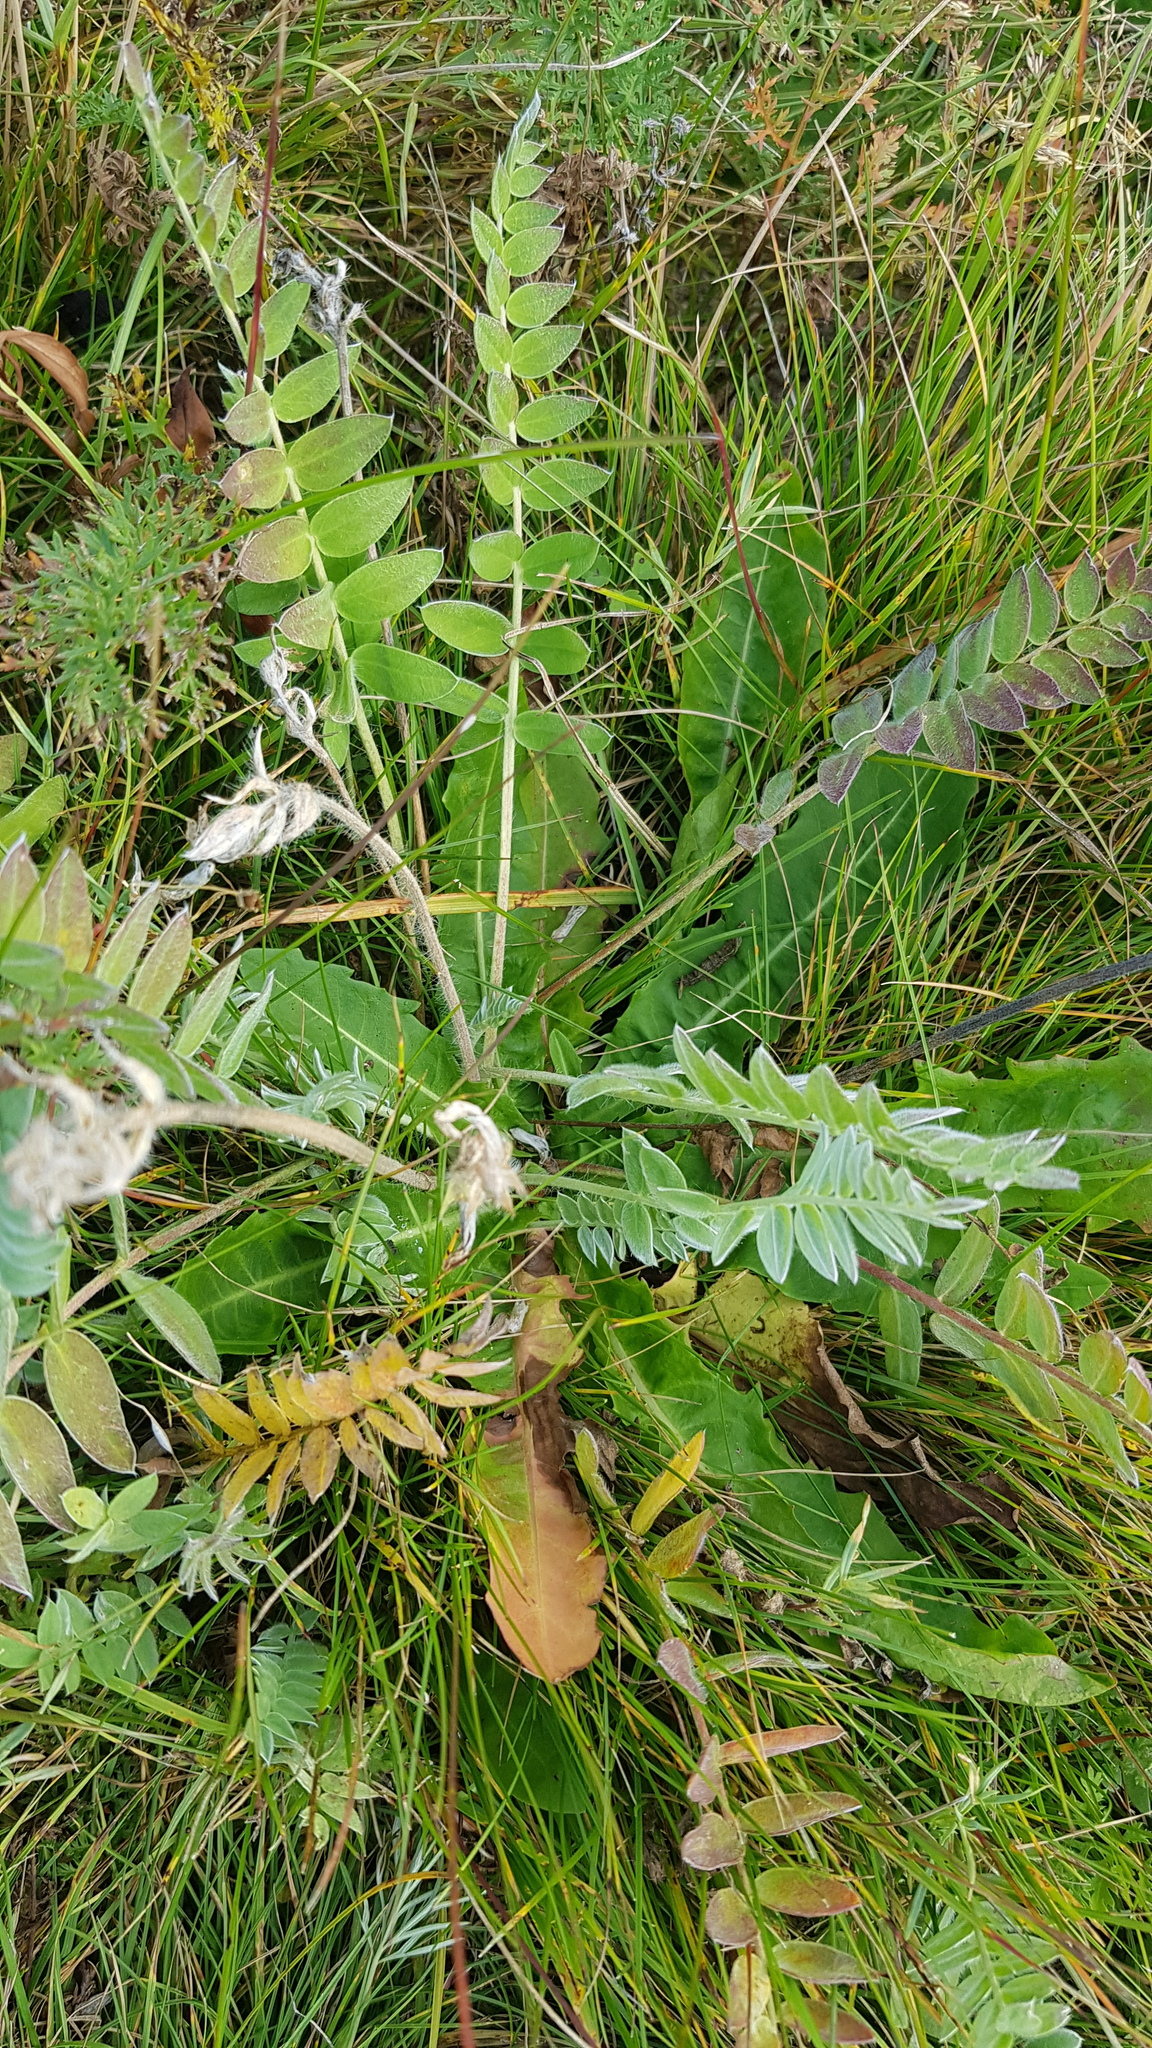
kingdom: Plantae
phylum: Tracheophyta
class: Magnoliopsida
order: Fabales
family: Fabaceae
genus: Oxytropis
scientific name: Oxytropis strobilacea
